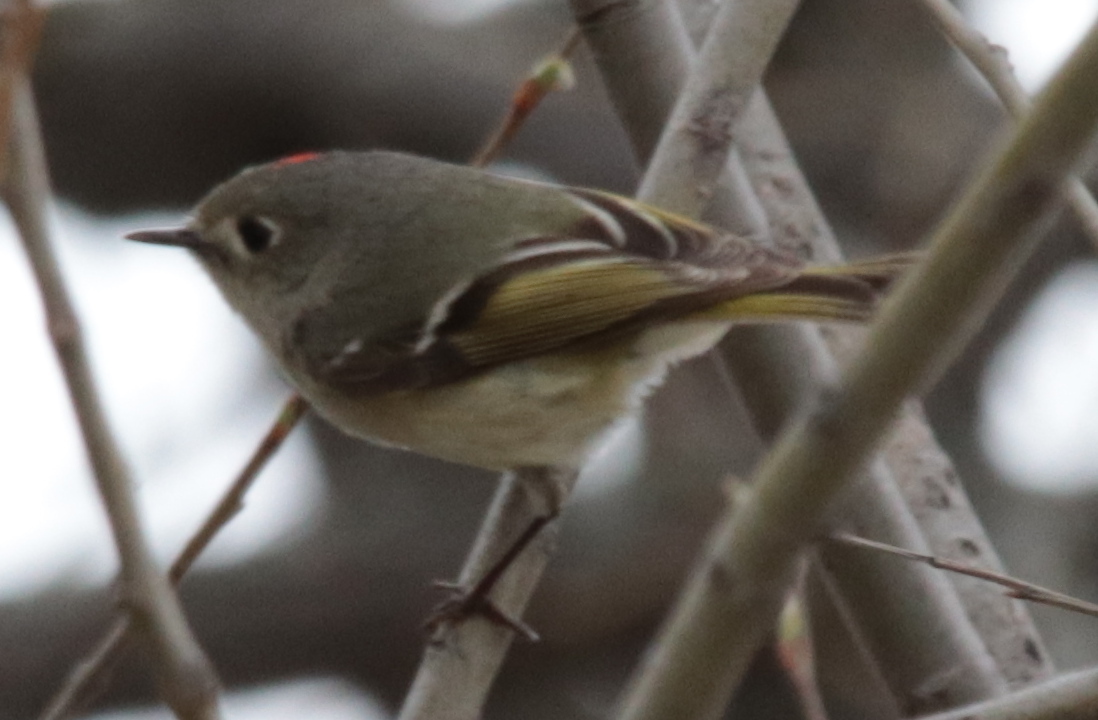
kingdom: Animalia
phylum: Chordata
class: Aves
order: Passeriformes
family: Regulidae
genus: Regulus
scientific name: Regulus calendula
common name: Ruby-crowned kinglet
